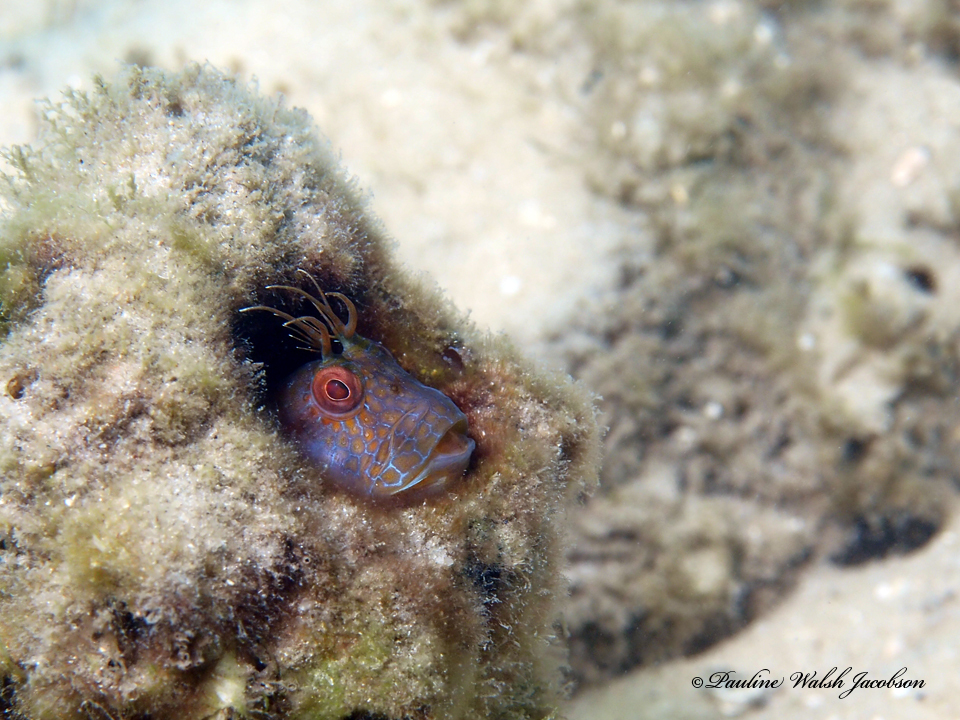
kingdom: Animalia
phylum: Chordata
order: Perciformes
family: Blenniidae
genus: Parablennius
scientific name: Parablennius marmoreus
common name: Seaweed blenny
